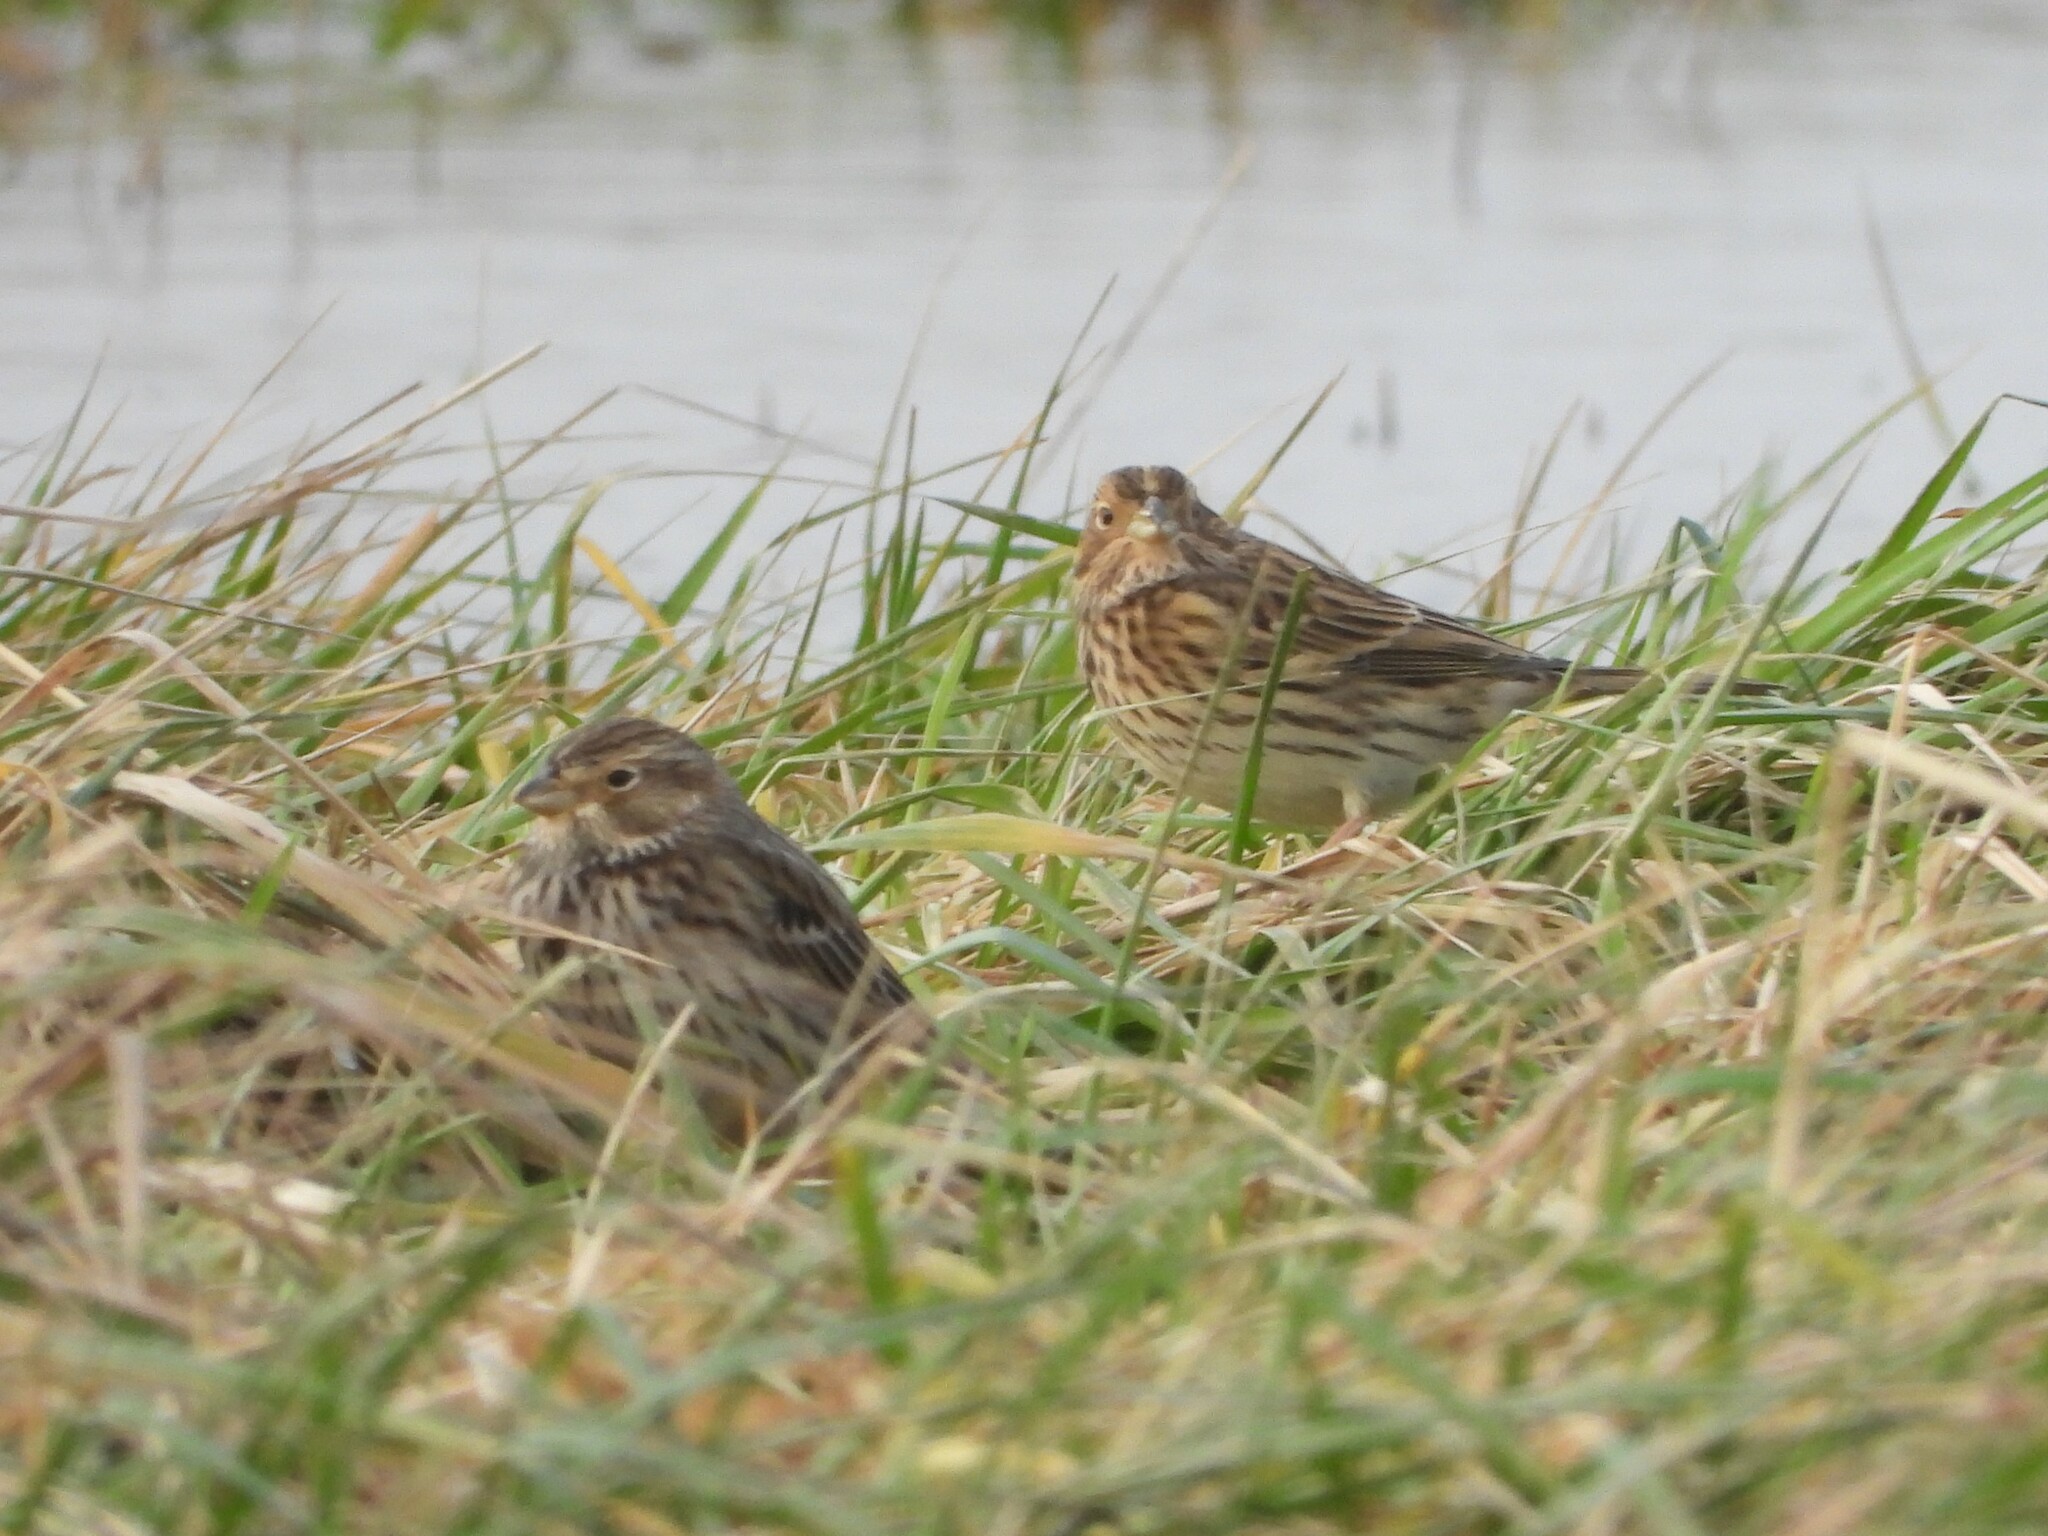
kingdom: Animalia
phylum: Chordata
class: Aves
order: Passeriformes
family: Emberizidae
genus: Emberiza
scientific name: Emberiza calandra
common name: Corn bunting
